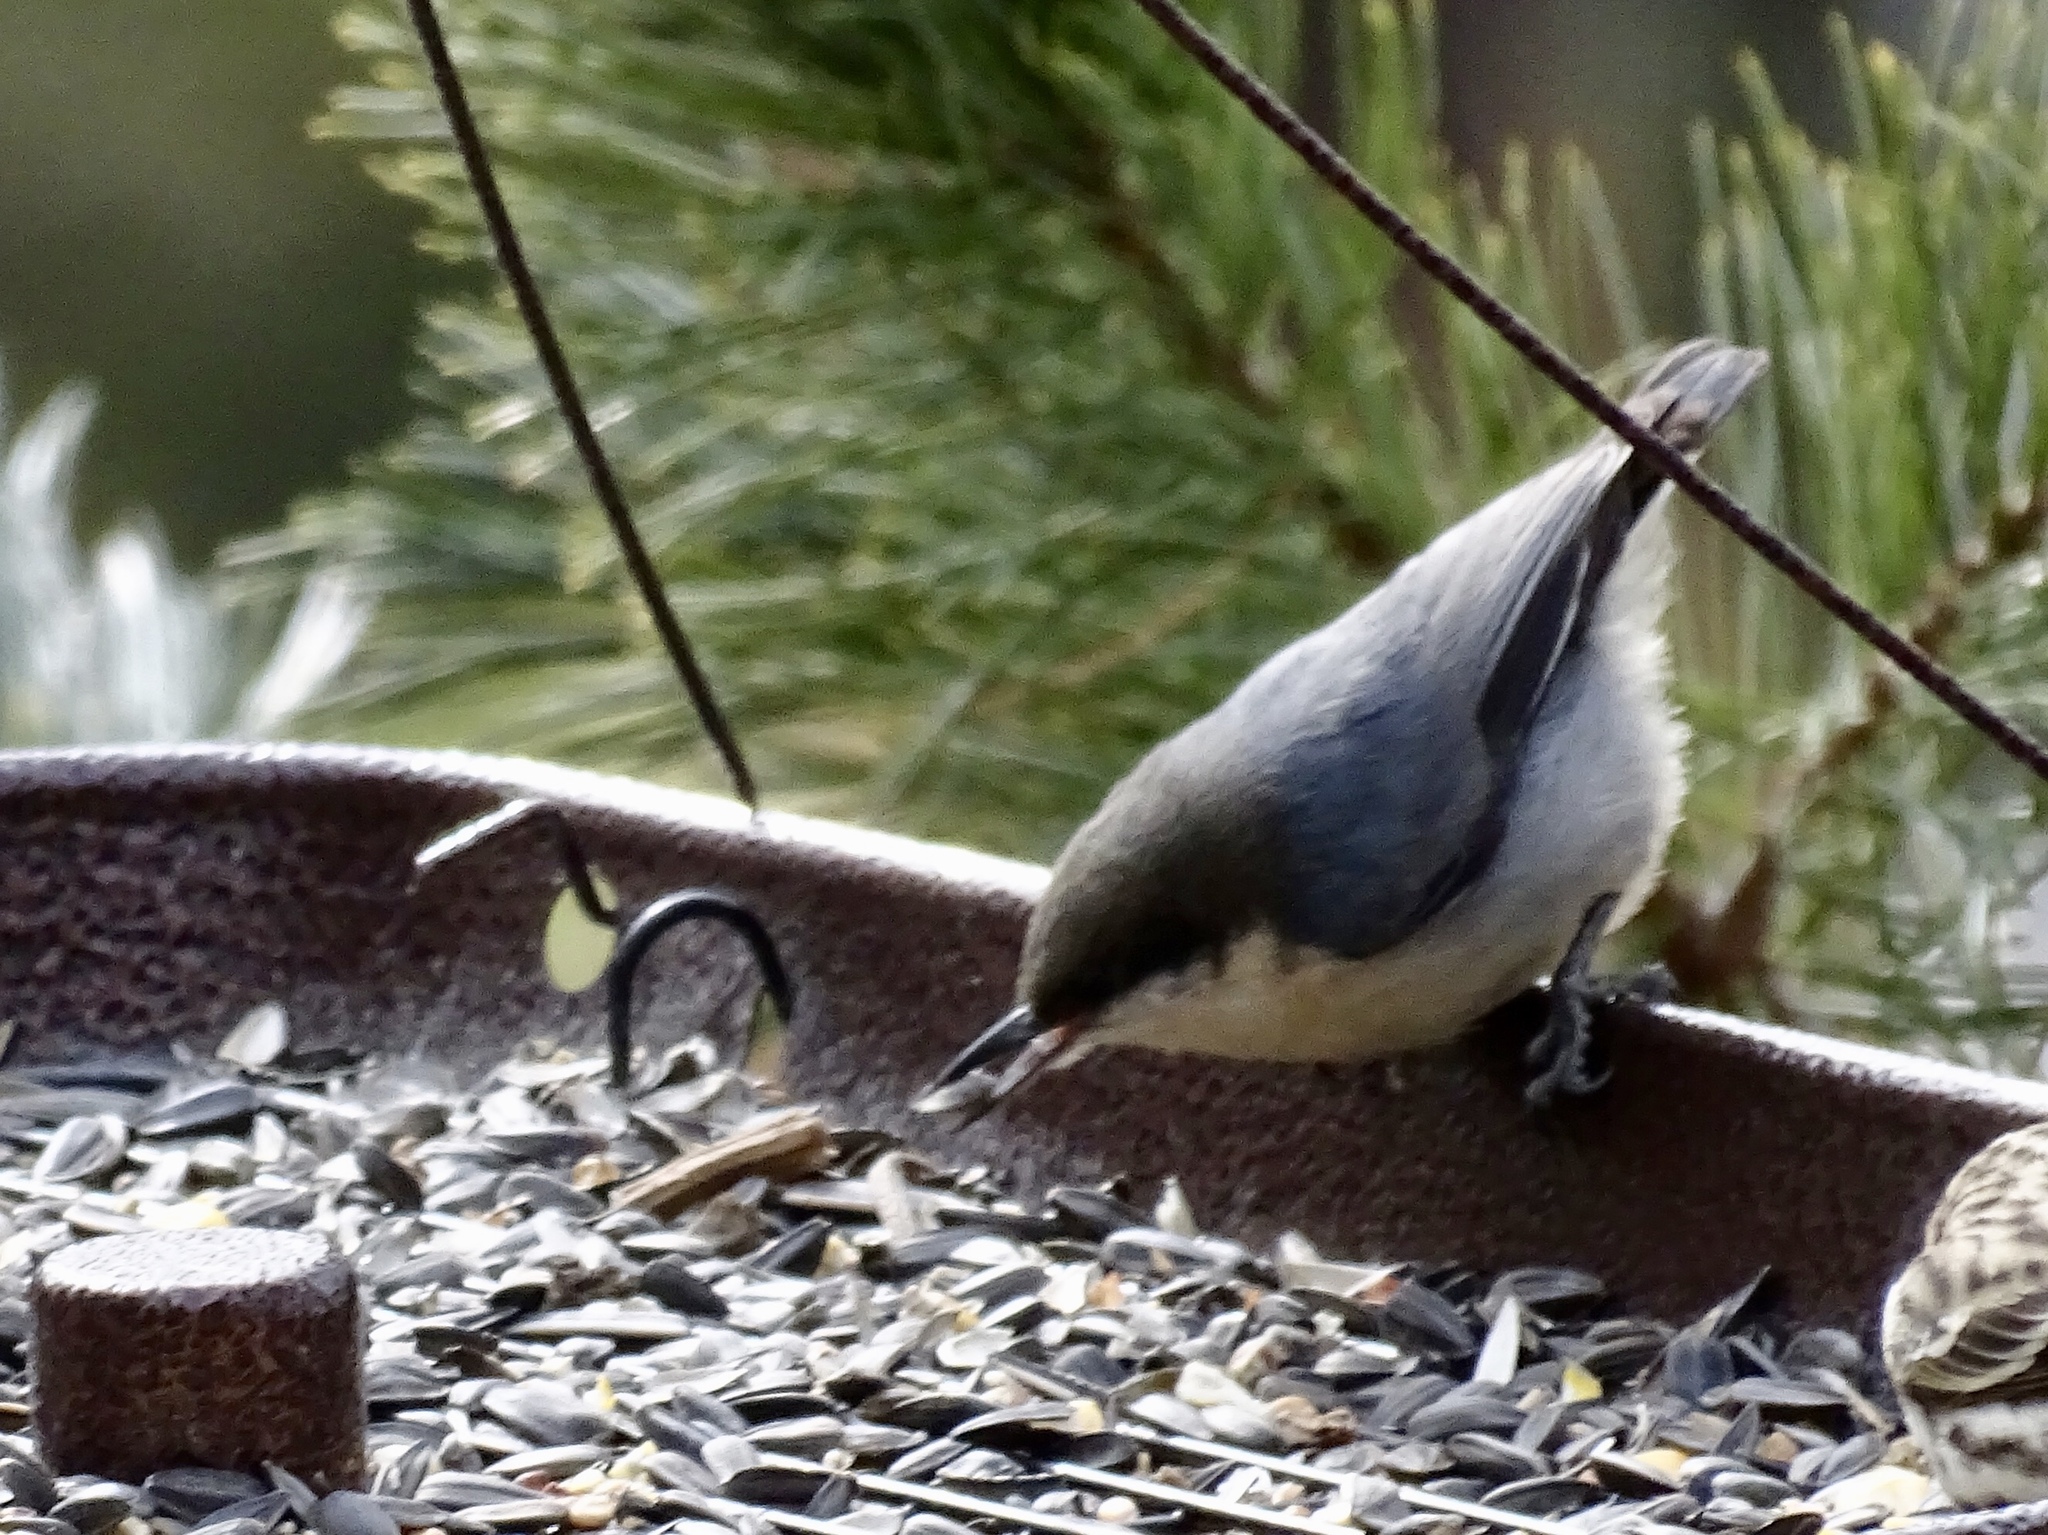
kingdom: Animalia
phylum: Chordata
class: Aves
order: Passeriformes
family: Sittidae
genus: Sitta
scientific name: Sitta pygmaea
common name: Pygmy nuthatch
